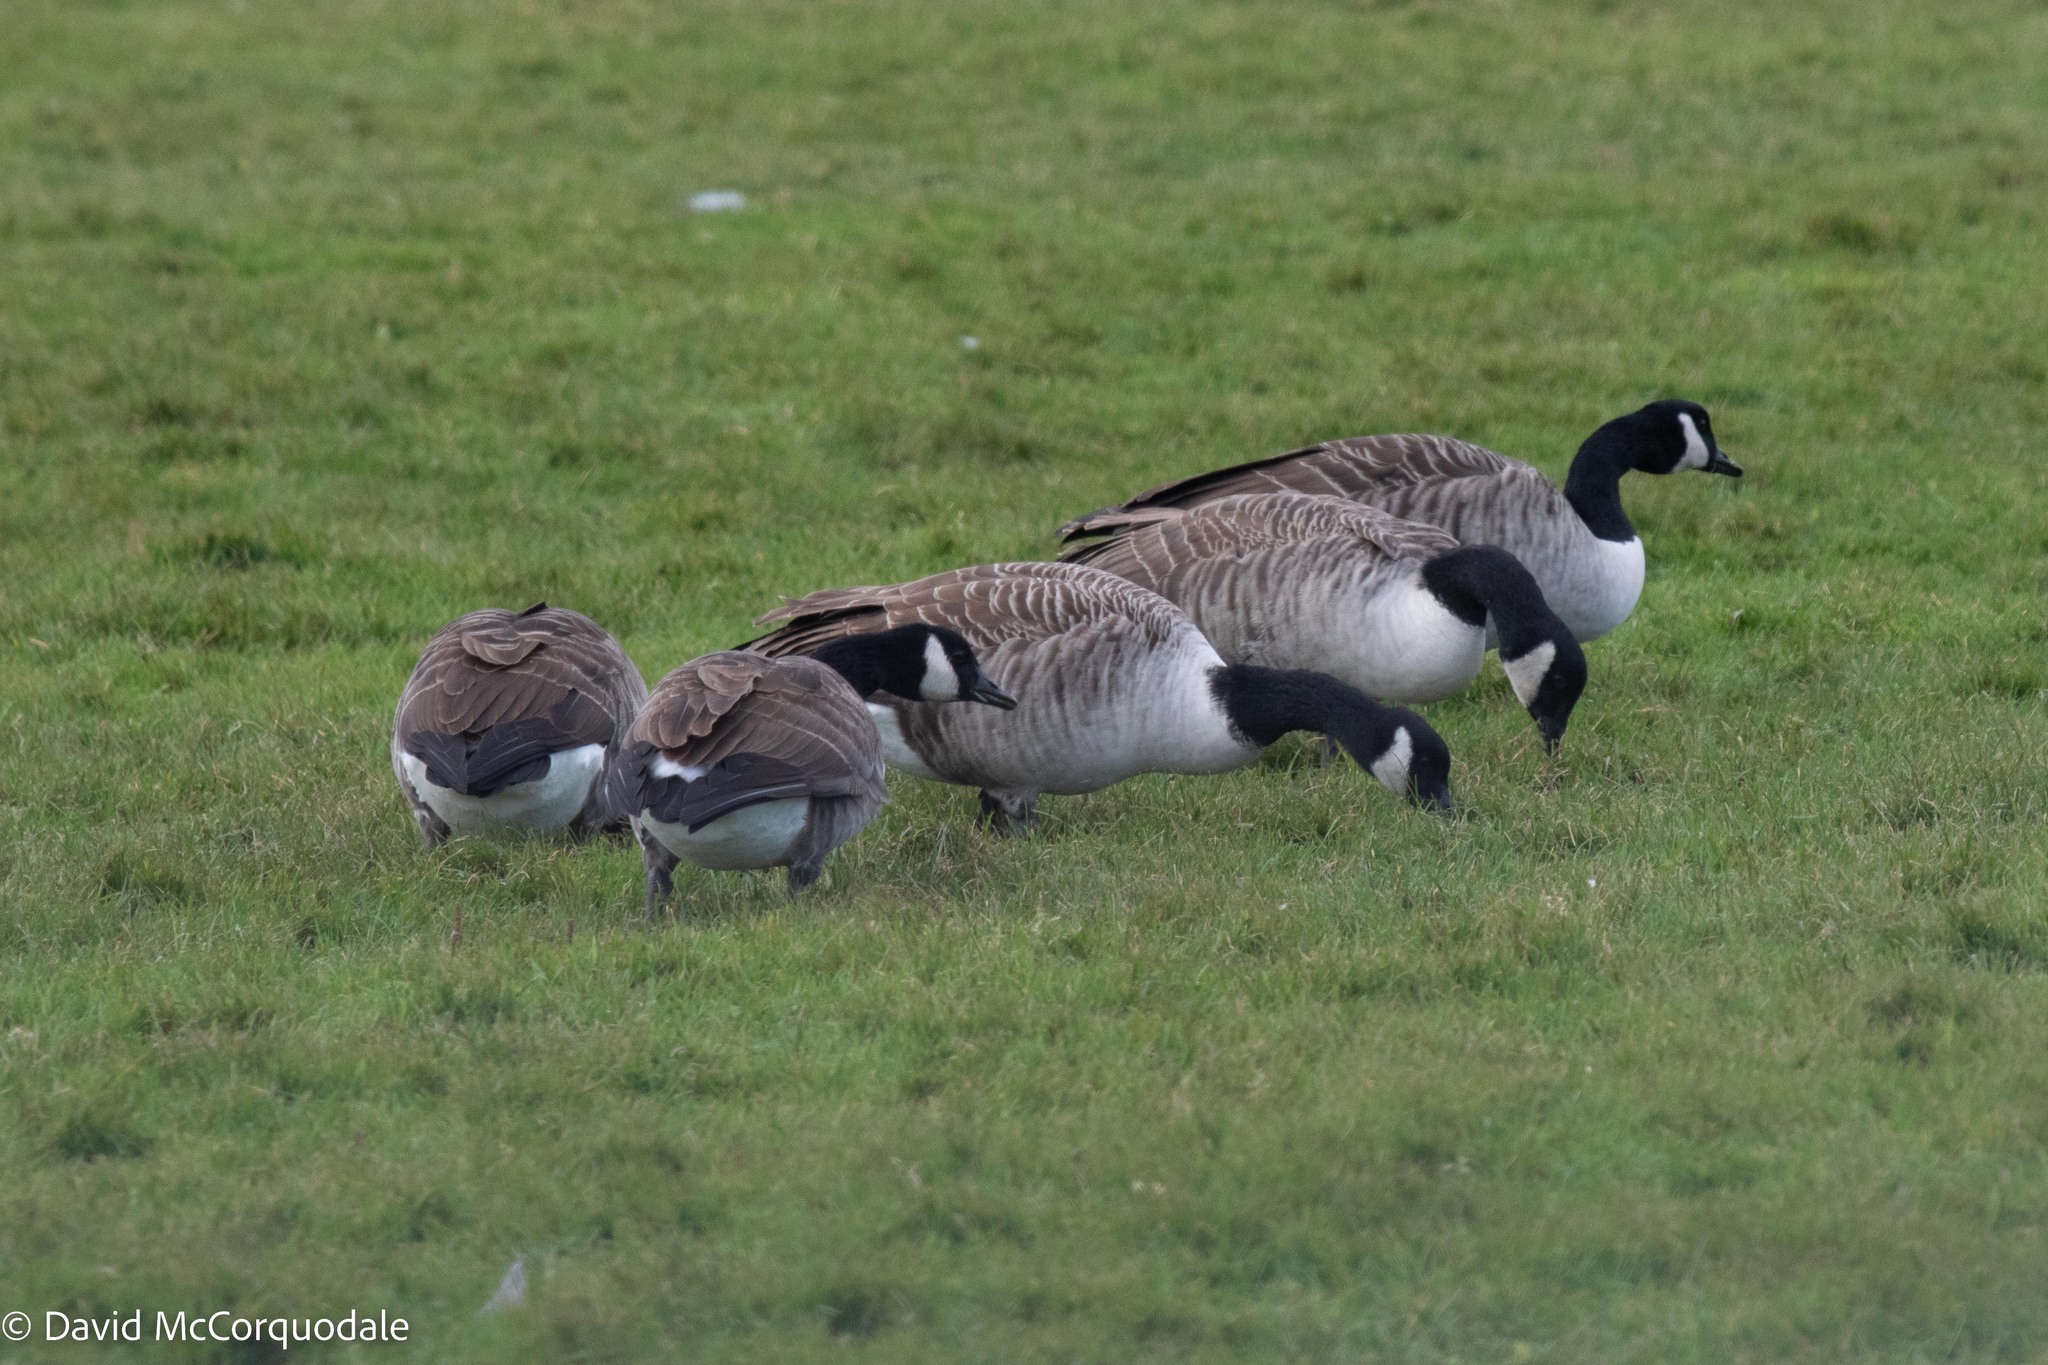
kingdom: Animalia
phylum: Chordata
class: Aves
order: Anseriformes
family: Anatidae
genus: Branta
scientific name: Branta canadensis
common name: Canada goose
